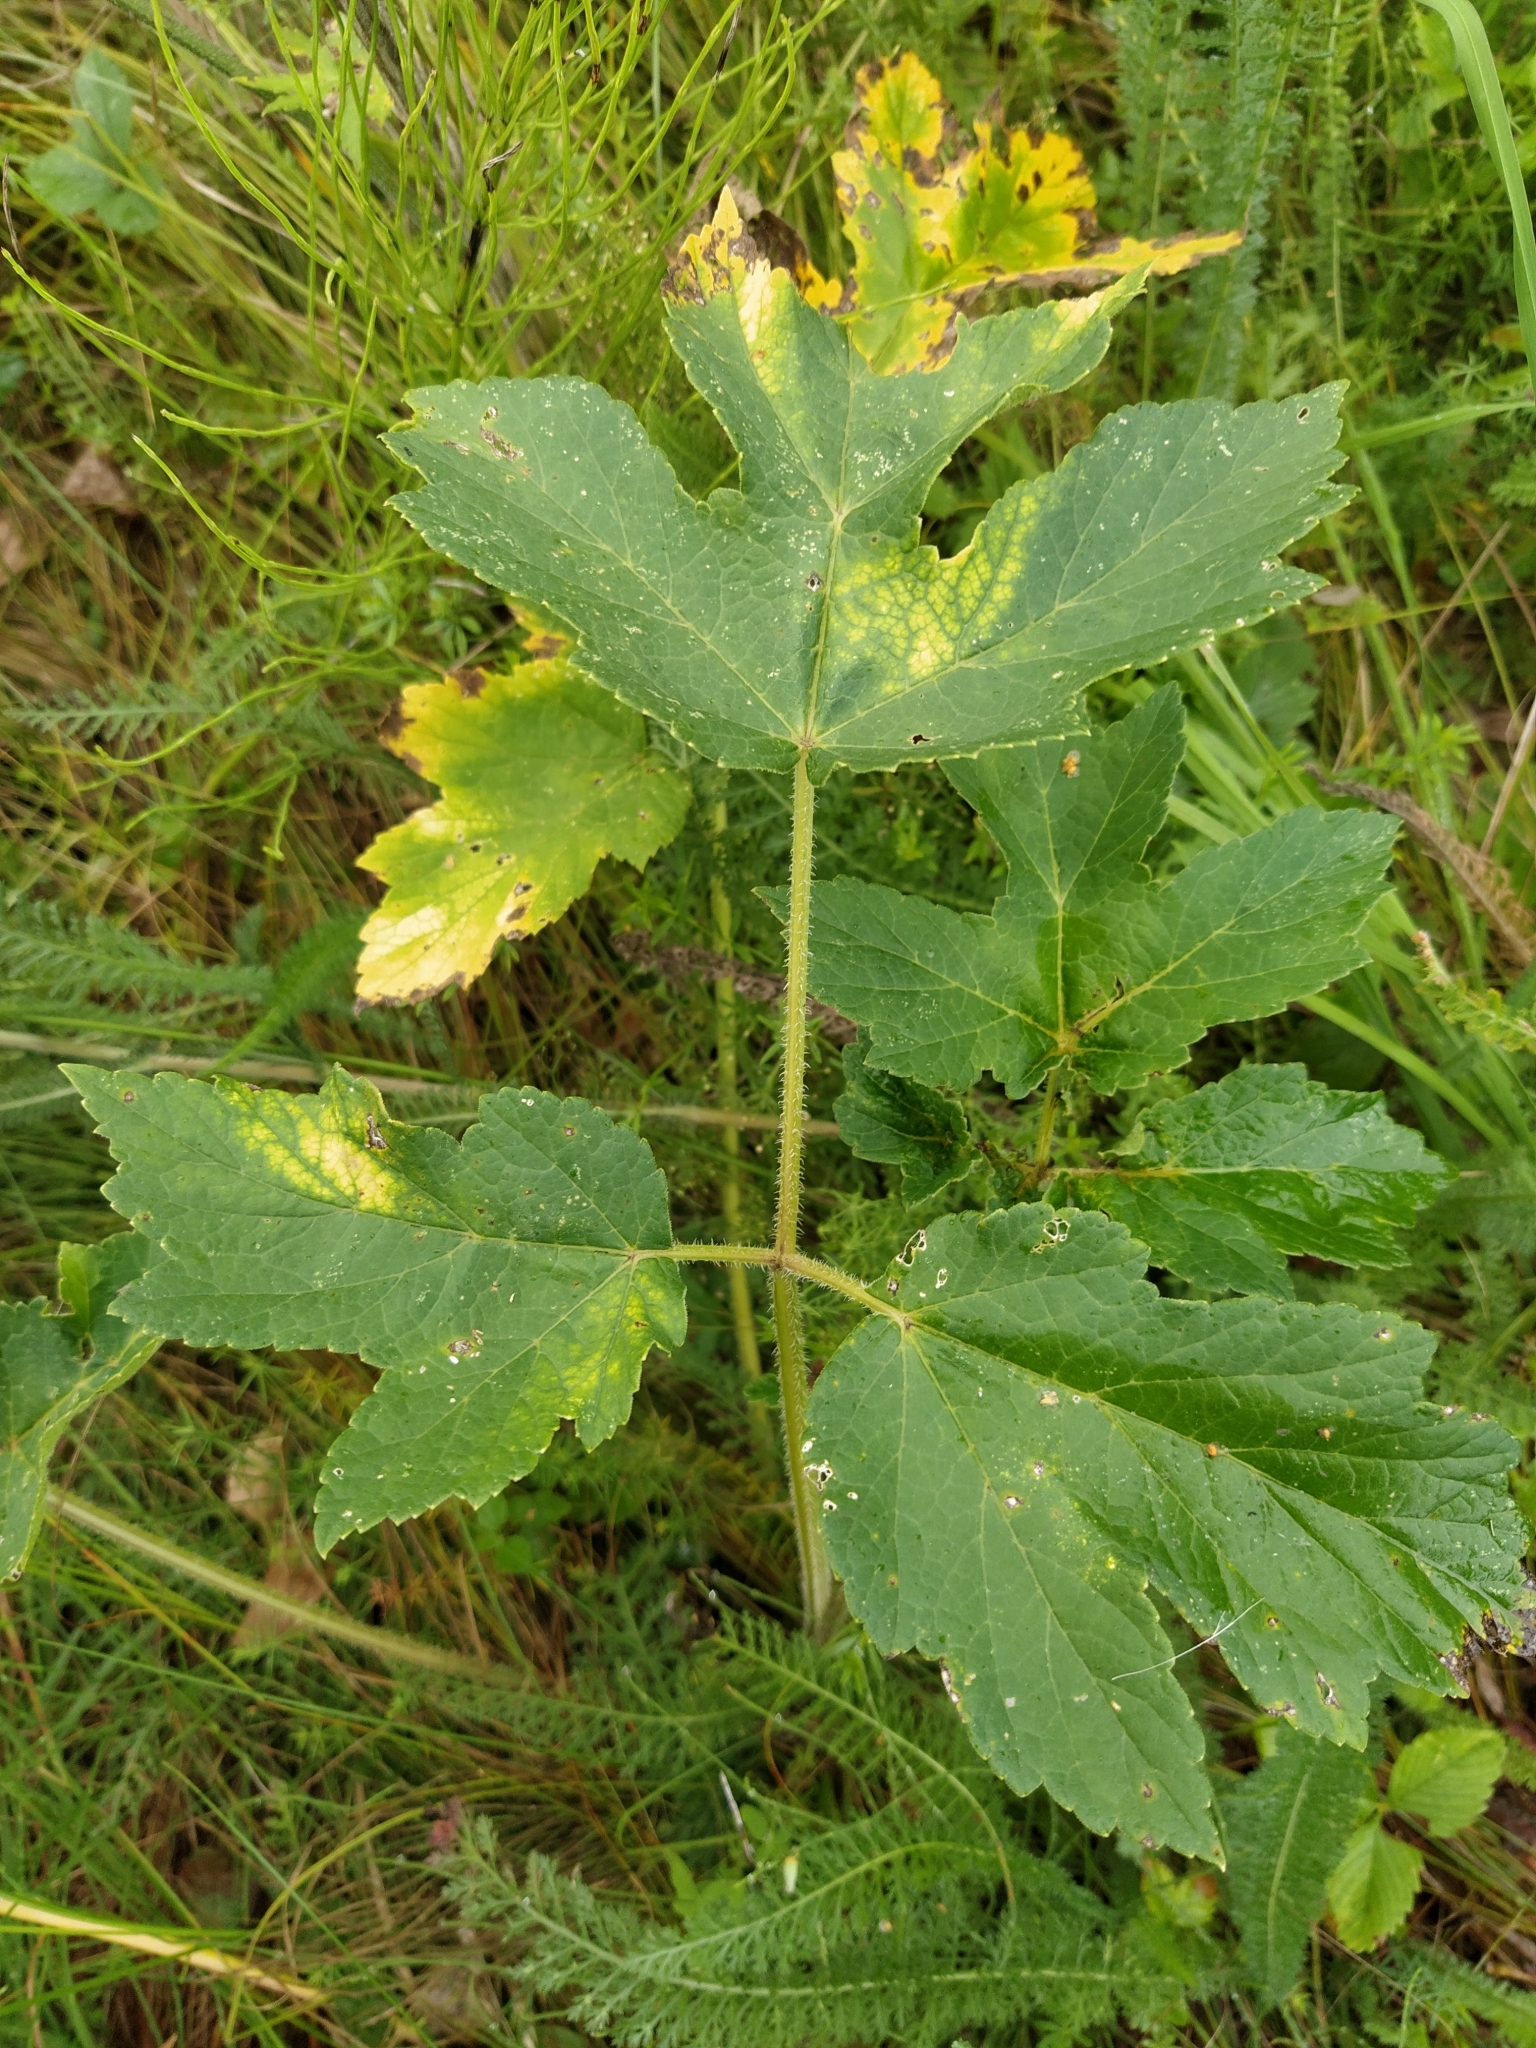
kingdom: Plantae
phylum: Tracheophyta
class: Magnoliopsida
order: Apiales
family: Apiaceae
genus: Heracleum
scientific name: Heracleum sphondylium
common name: Hogweed
